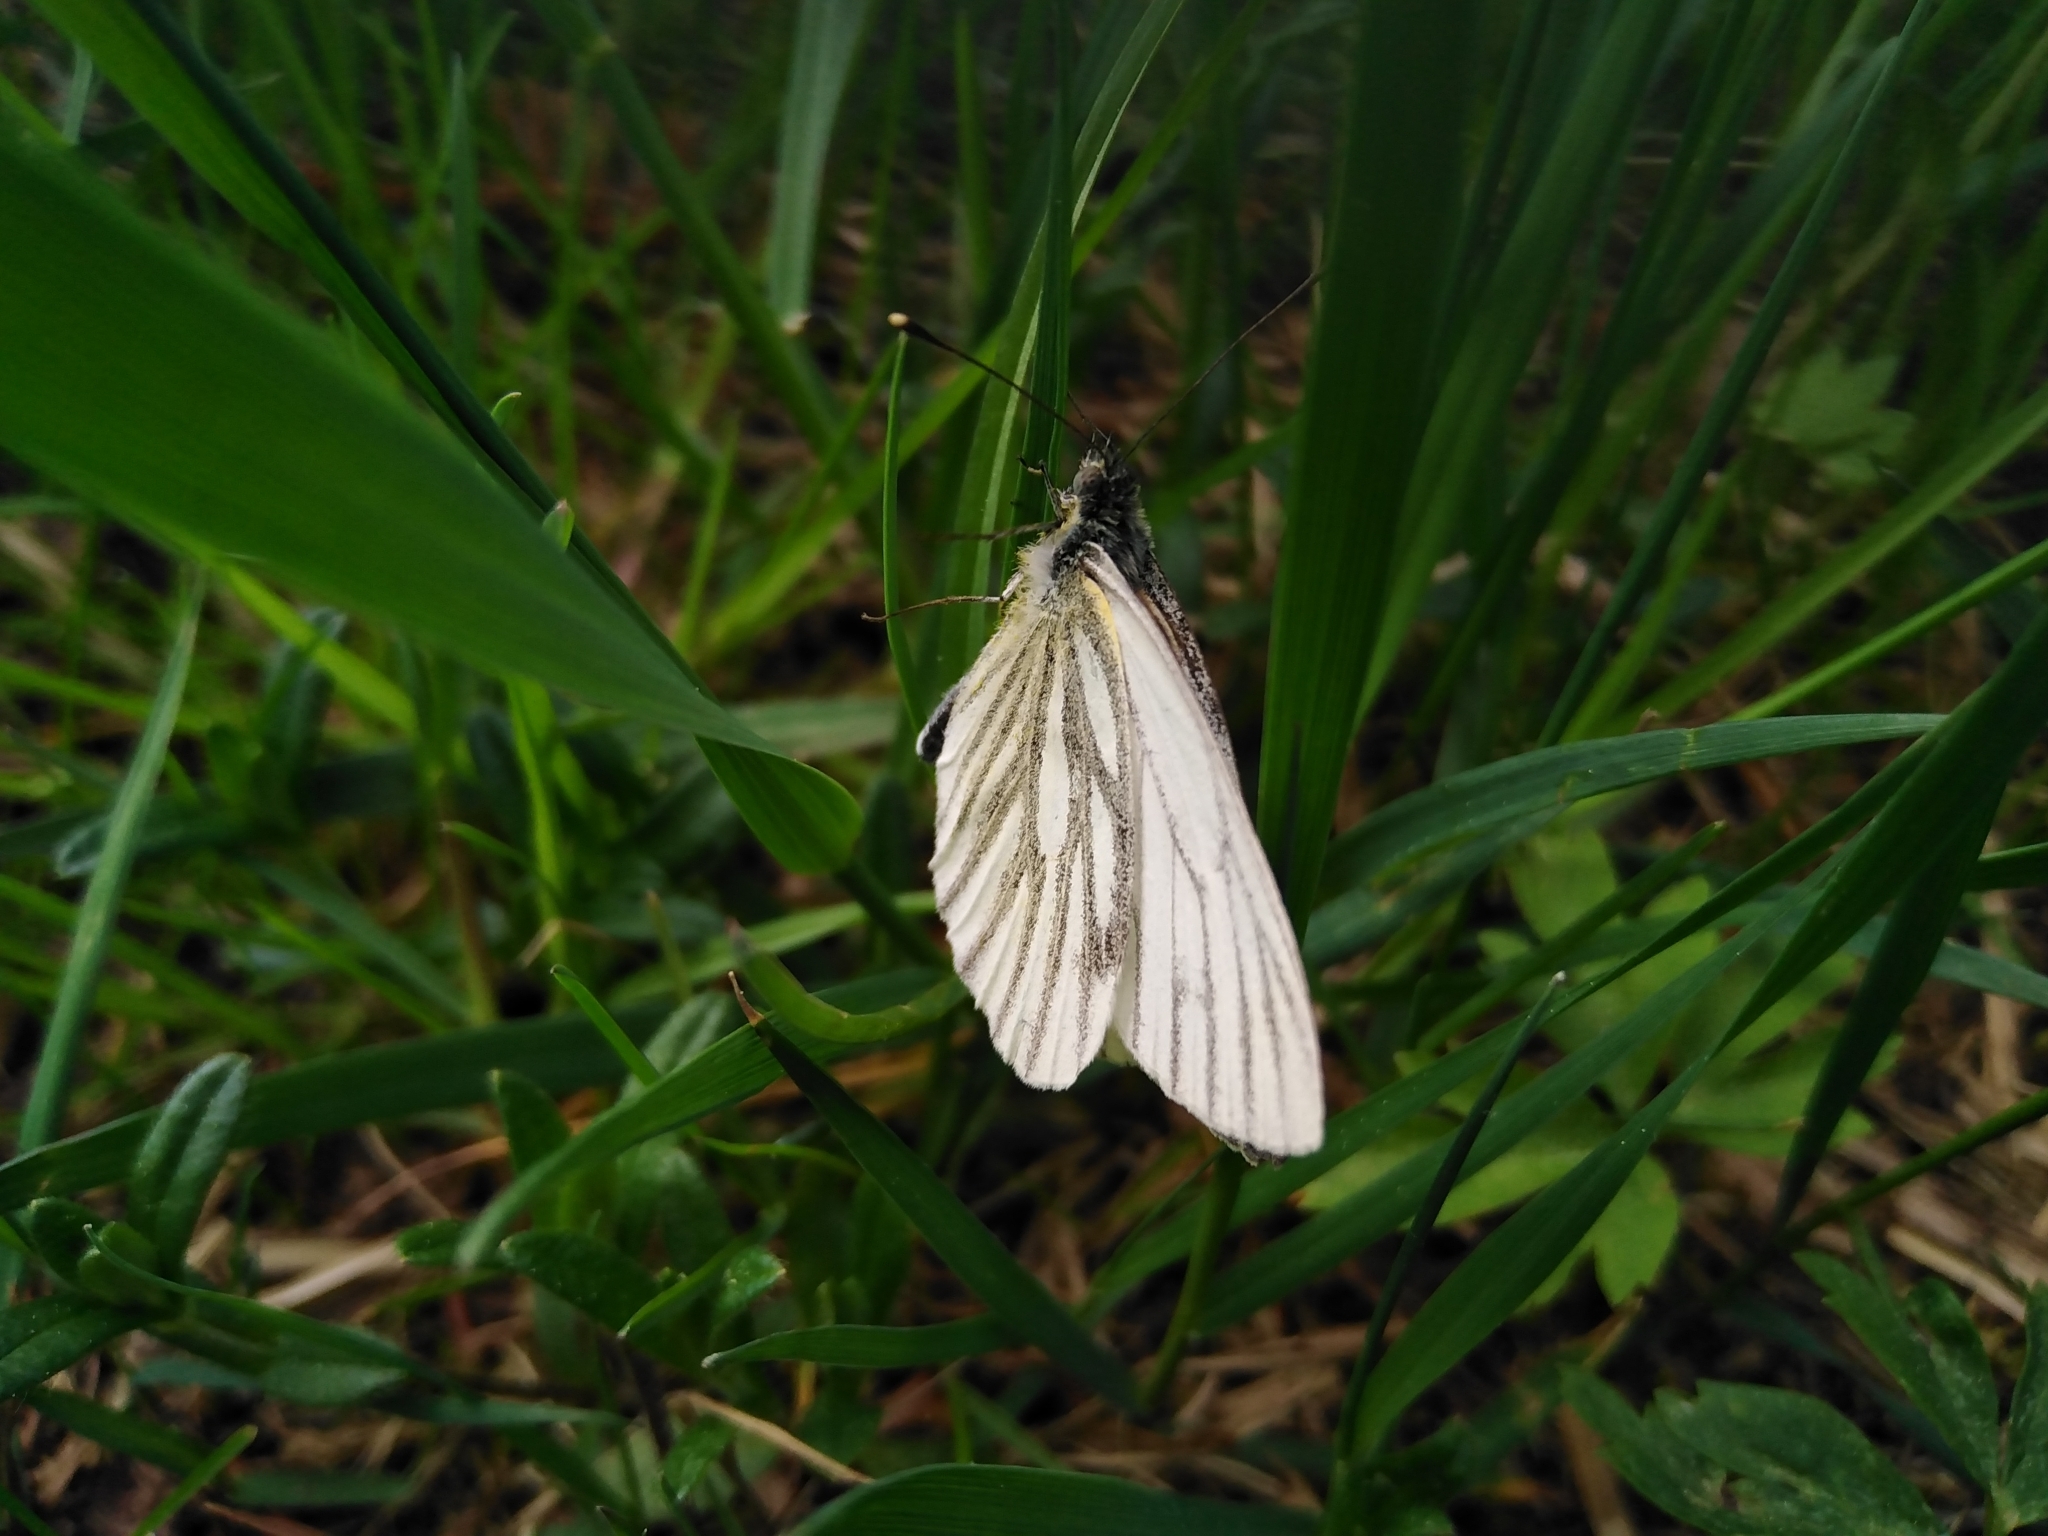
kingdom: Animalia
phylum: Arthropoda
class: Insecta
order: Lepidoptera
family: Pieridae
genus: Pieris
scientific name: Pieris napi
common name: Green-veined white
